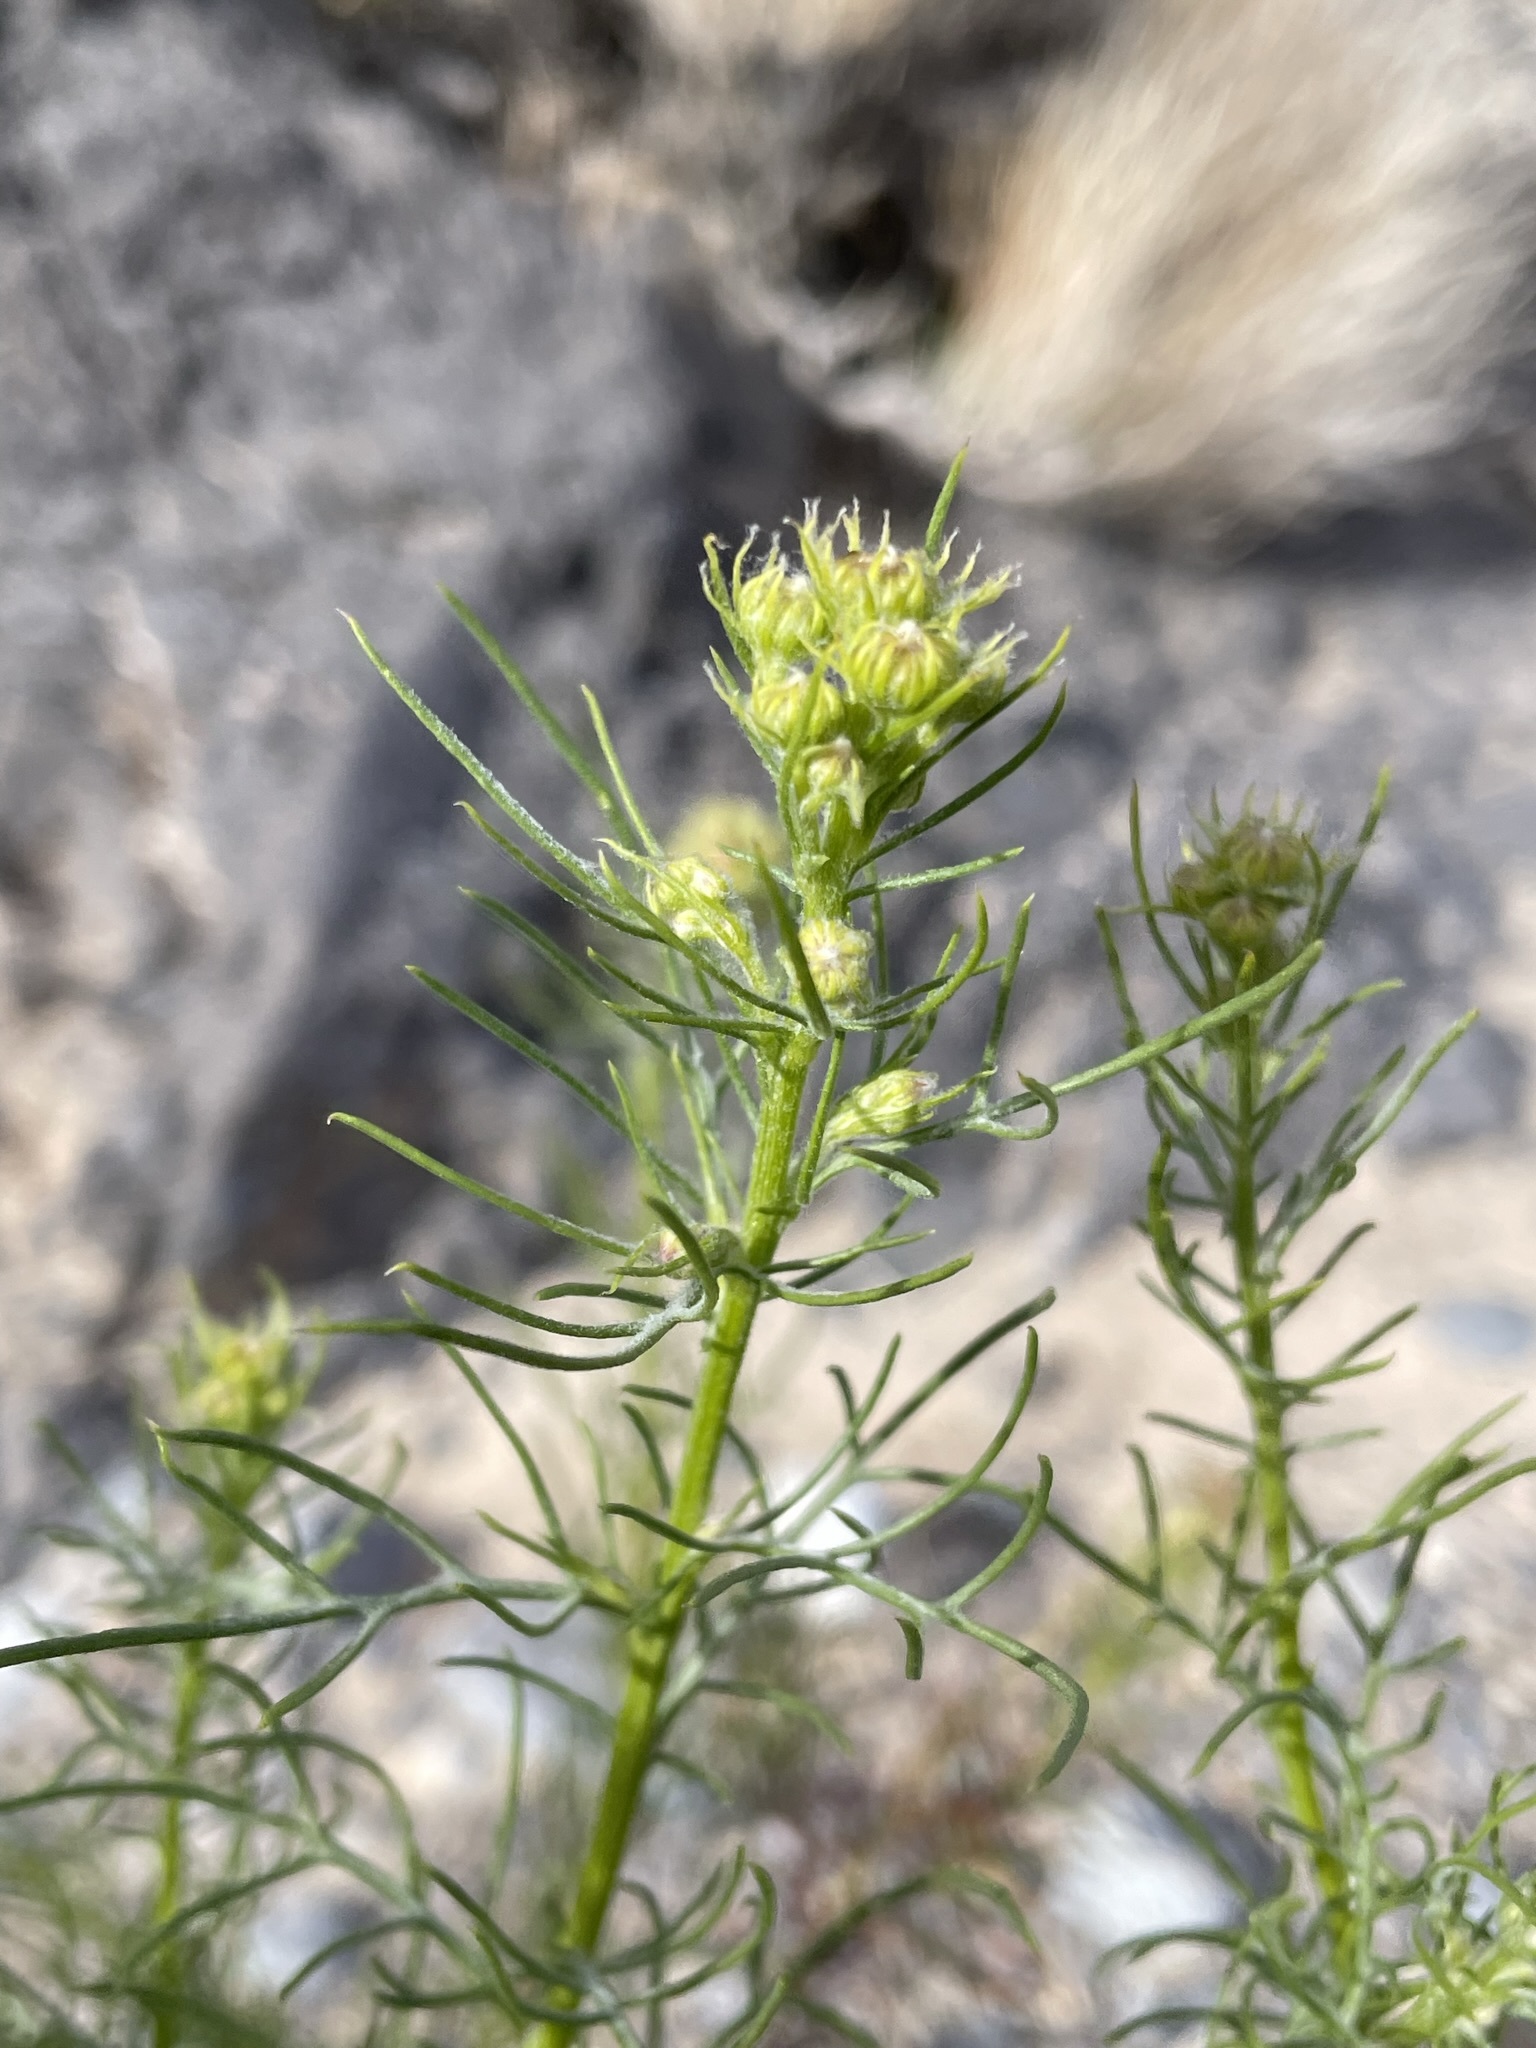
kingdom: Plantae
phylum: Tracheophyta
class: Magnoliopsida
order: Asterales
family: Asteraceae
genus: Senecio
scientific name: Senecio flaccidus
